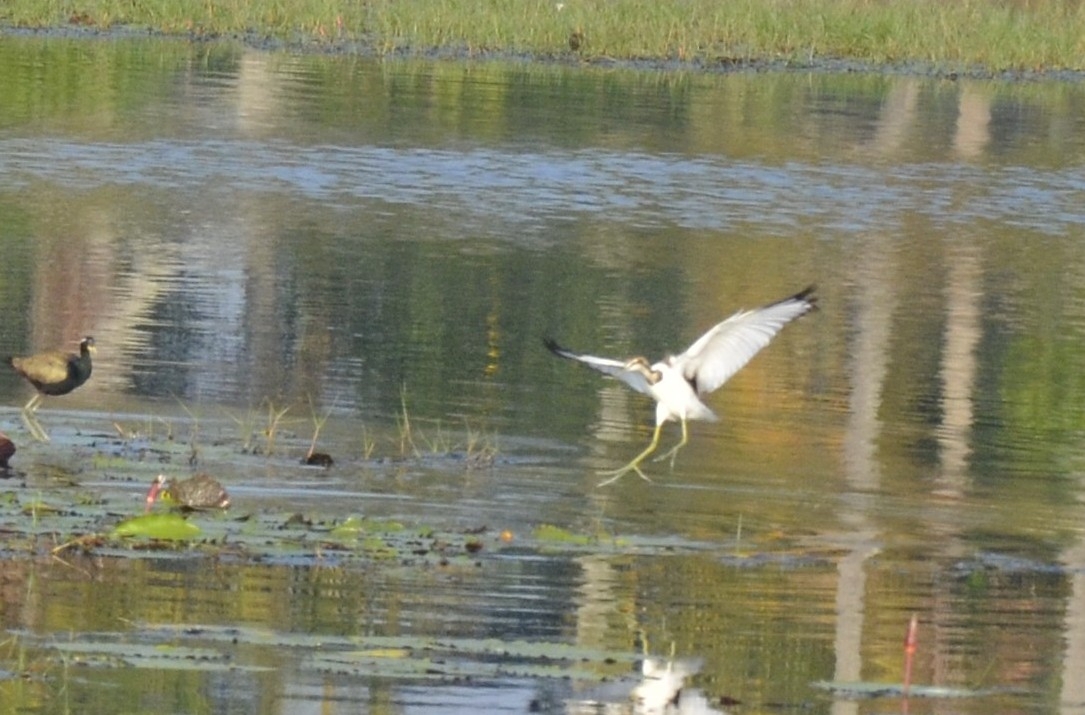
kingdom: Animalia
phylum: Chordata
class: Aves
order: Charadriiformes
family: Jacanidae
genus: Hydrophasianus
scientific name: Hydrophasianus chirurgus
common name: Pheasant-tailed jacana
